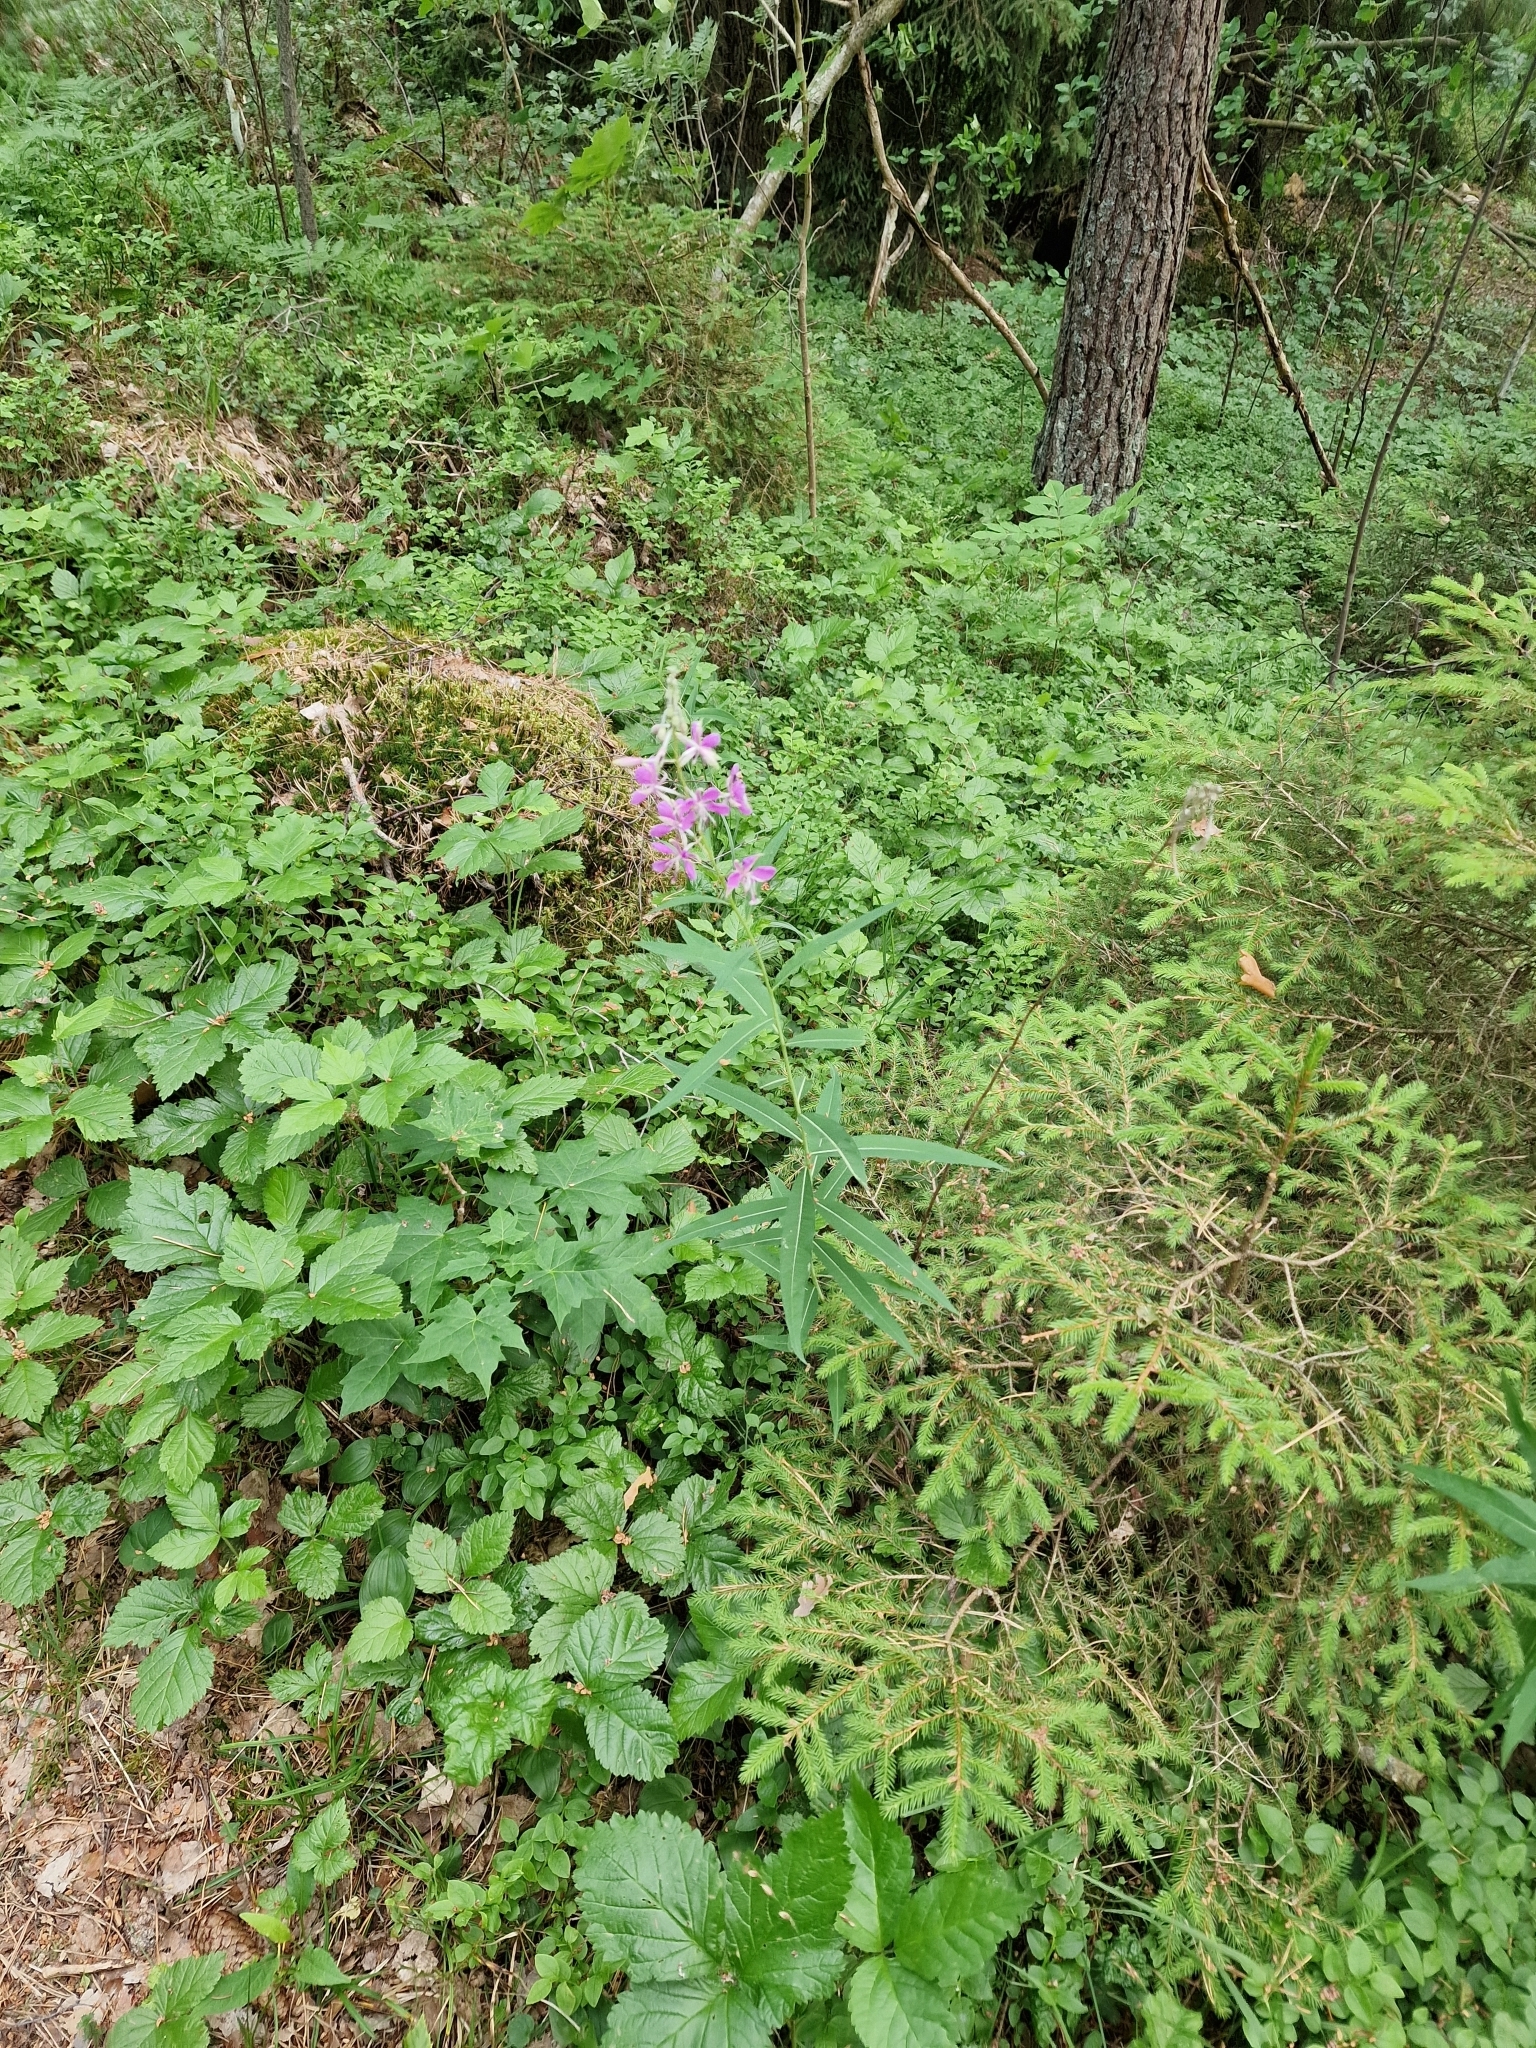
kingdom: Plantae
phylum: Tracheophyta
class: Magnoliopsida
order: Myrtales
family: Onagraceae
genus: Chamaenerion
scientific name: Chamaenerion angustifolium
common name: Fireweed
